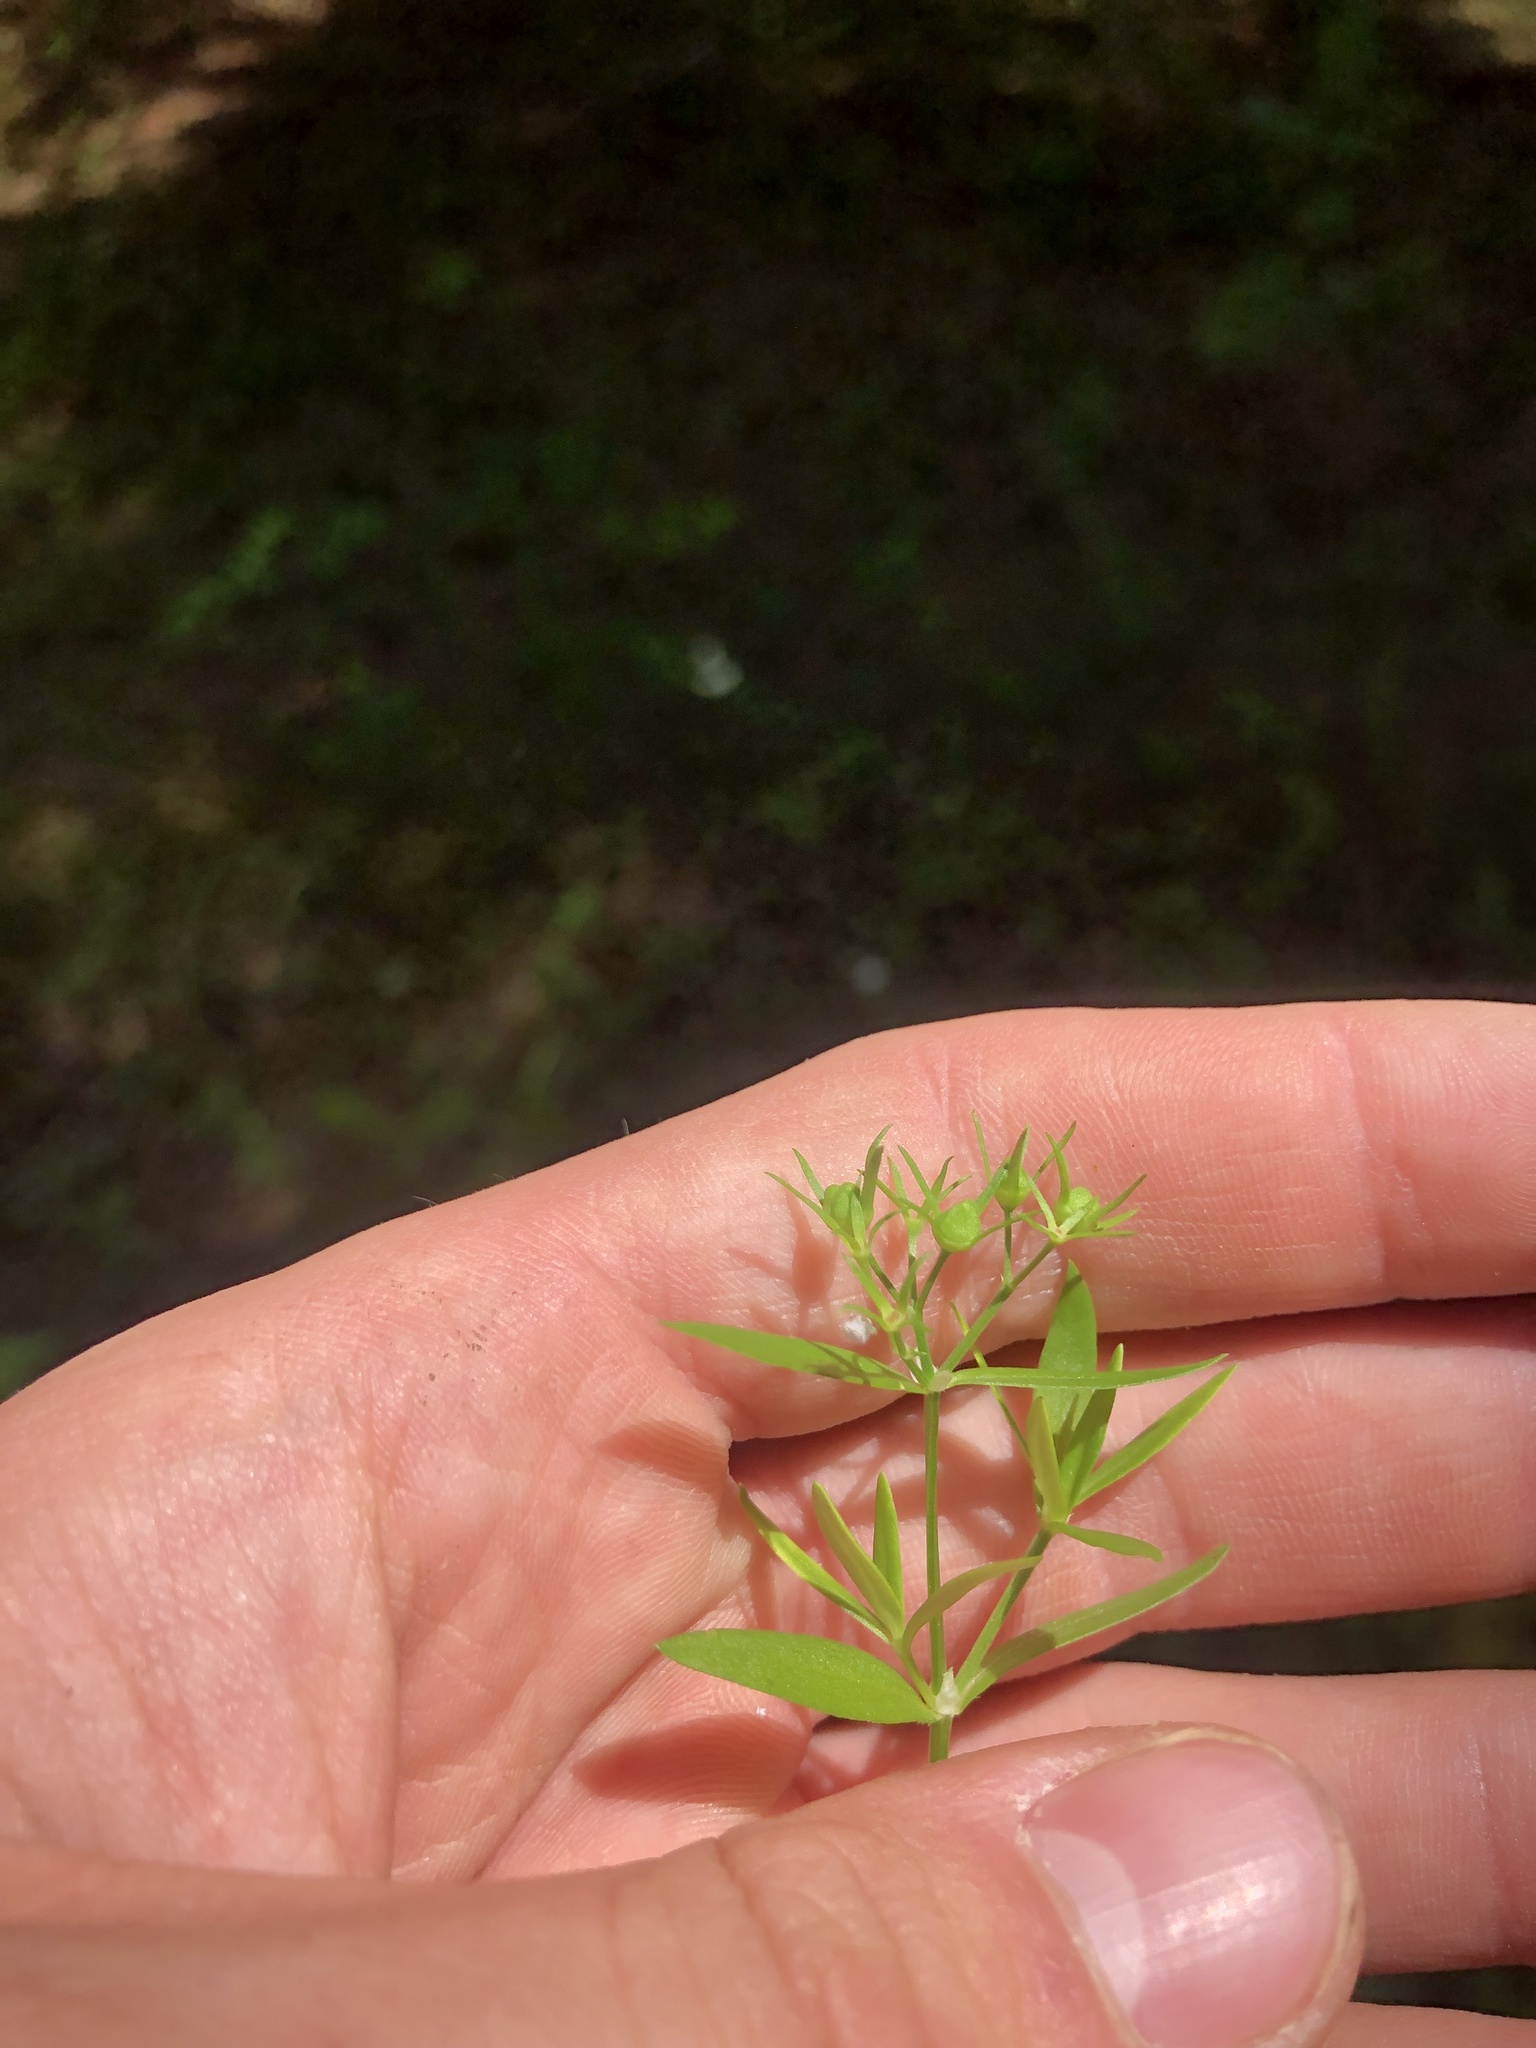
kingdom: Plantae
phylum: Tracheophyta
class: Magnoliopsida
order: Gentianales
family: Rubiaceae
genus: Houstonia
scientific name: Houstonia purpurea
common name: Summer bluet
